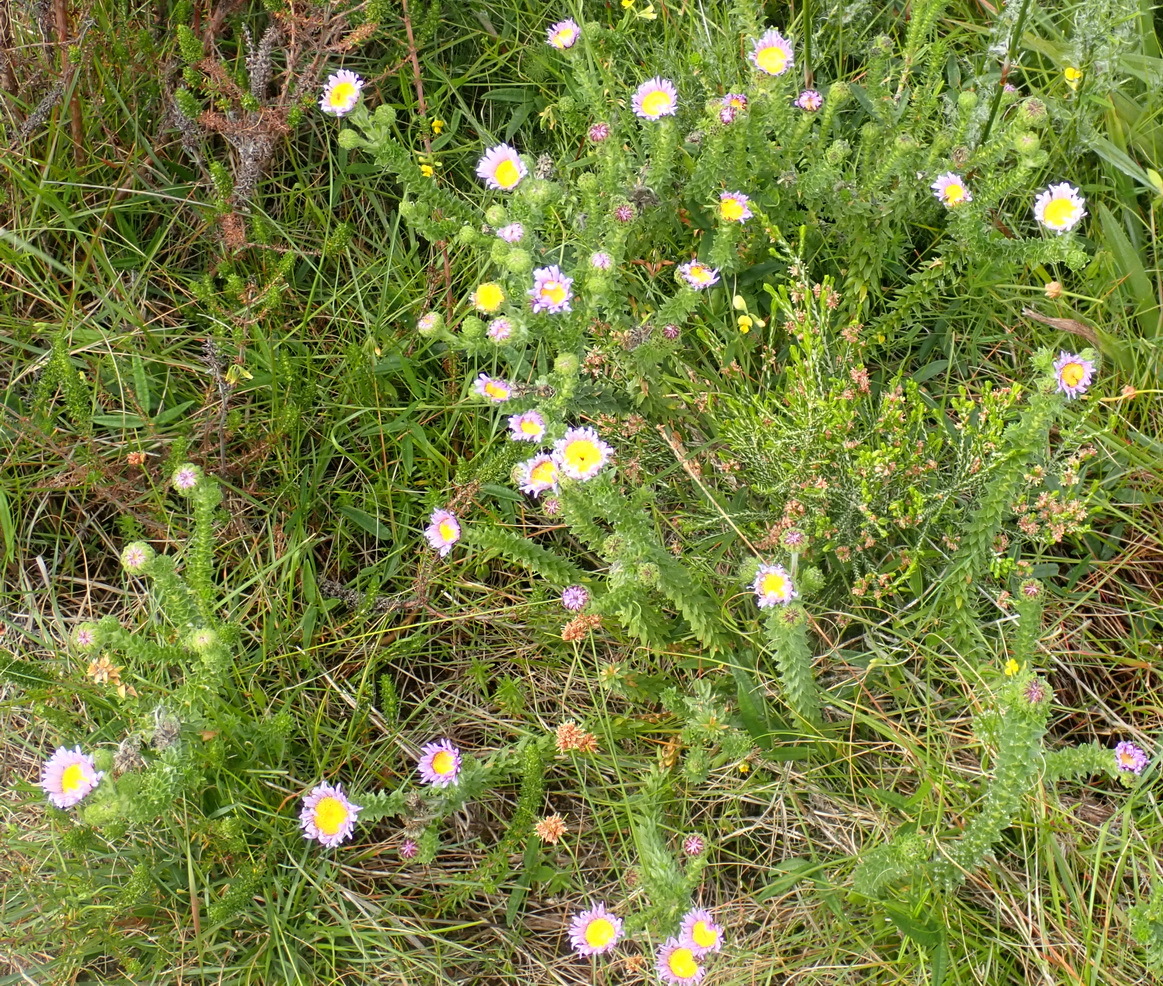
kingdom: Plantae
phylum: Tracheophyta
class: Magnoliopsida
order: Asterales
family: Asteraceae
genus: Felicia
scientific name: Felicia echinata
